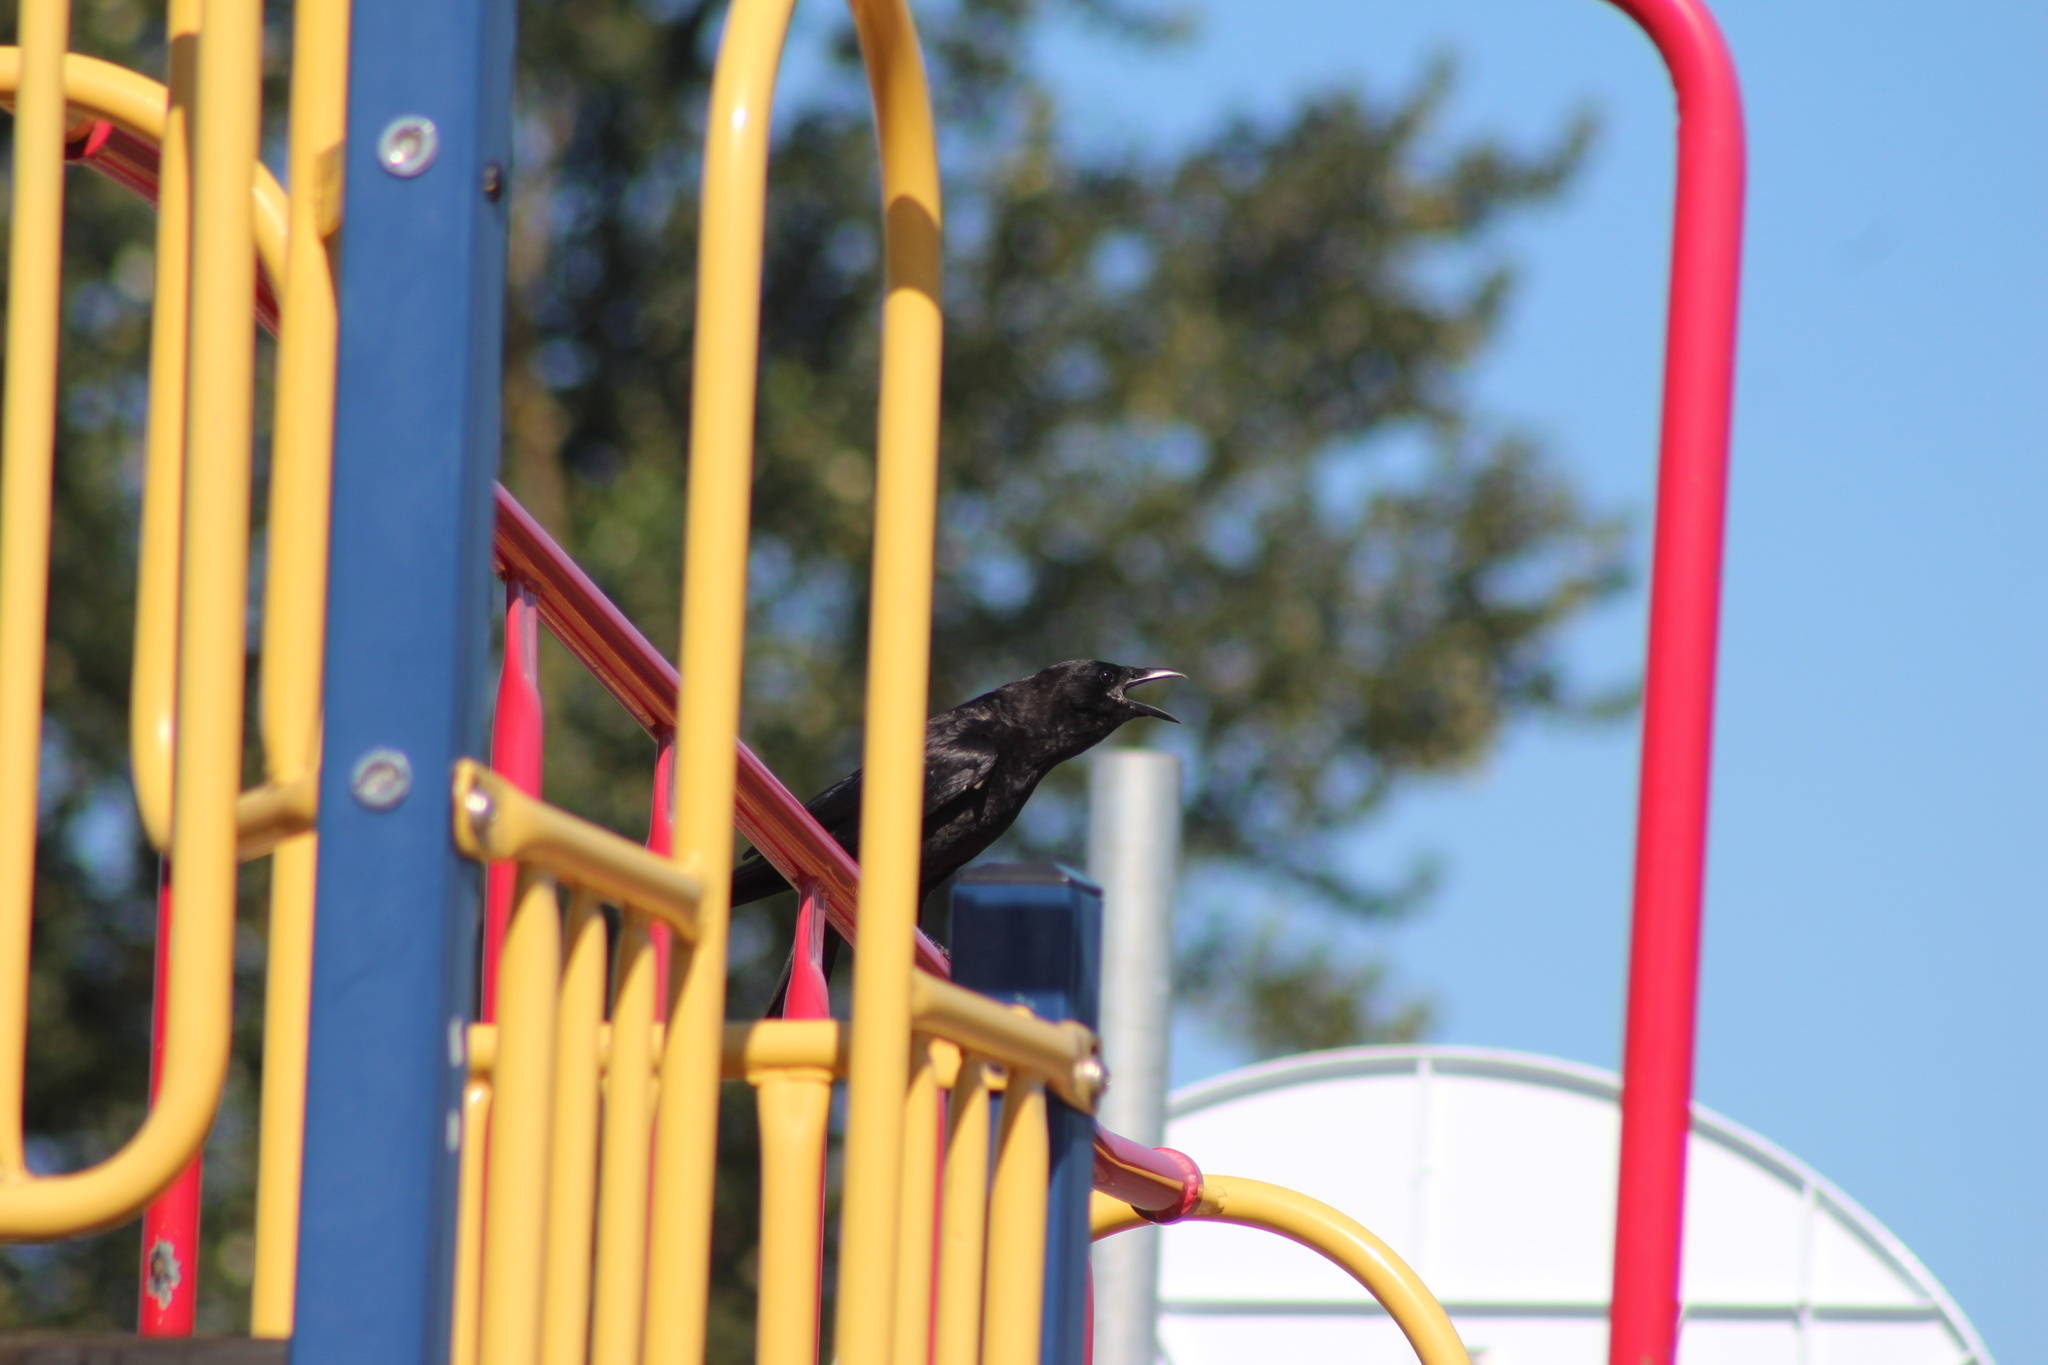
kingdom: Animalia
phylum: Chordata
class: Aves
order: Passeriformes
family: Corvidae
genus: Corvus
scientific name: Corvus brachyrhynchos
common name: American crow
